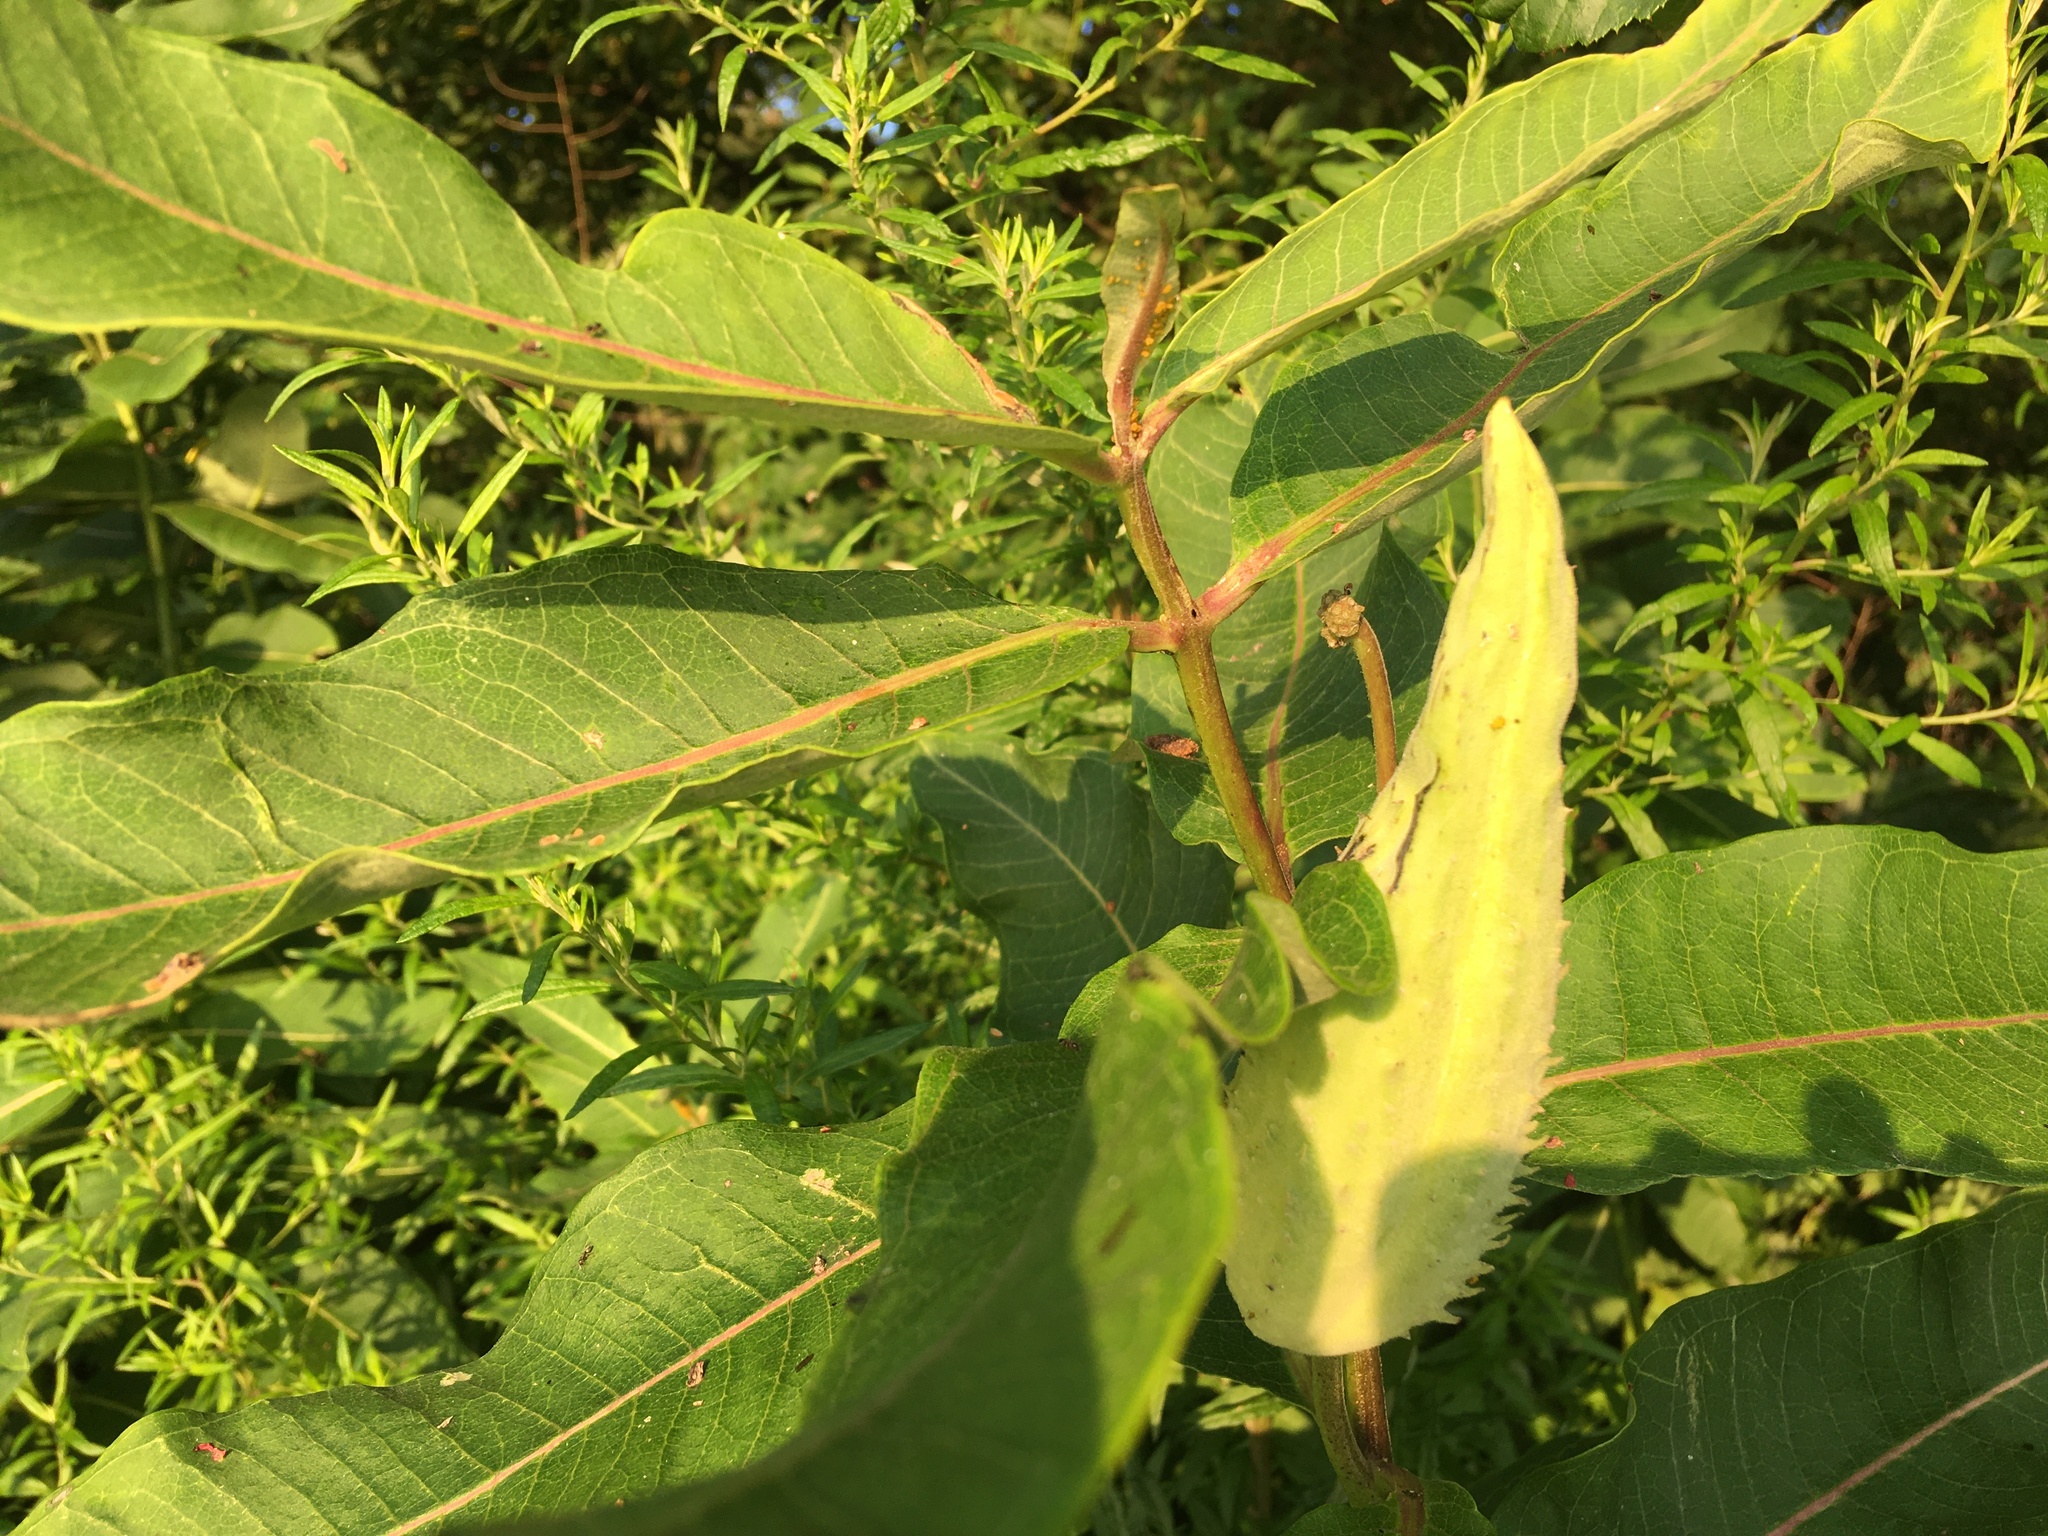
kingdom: Plantae
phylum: Tracheophyta
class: Magnoliopsida
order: Gentianales
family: Apocynaceae
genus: Asclepias
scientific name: Asclepias syriaca
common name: Common milkweed
